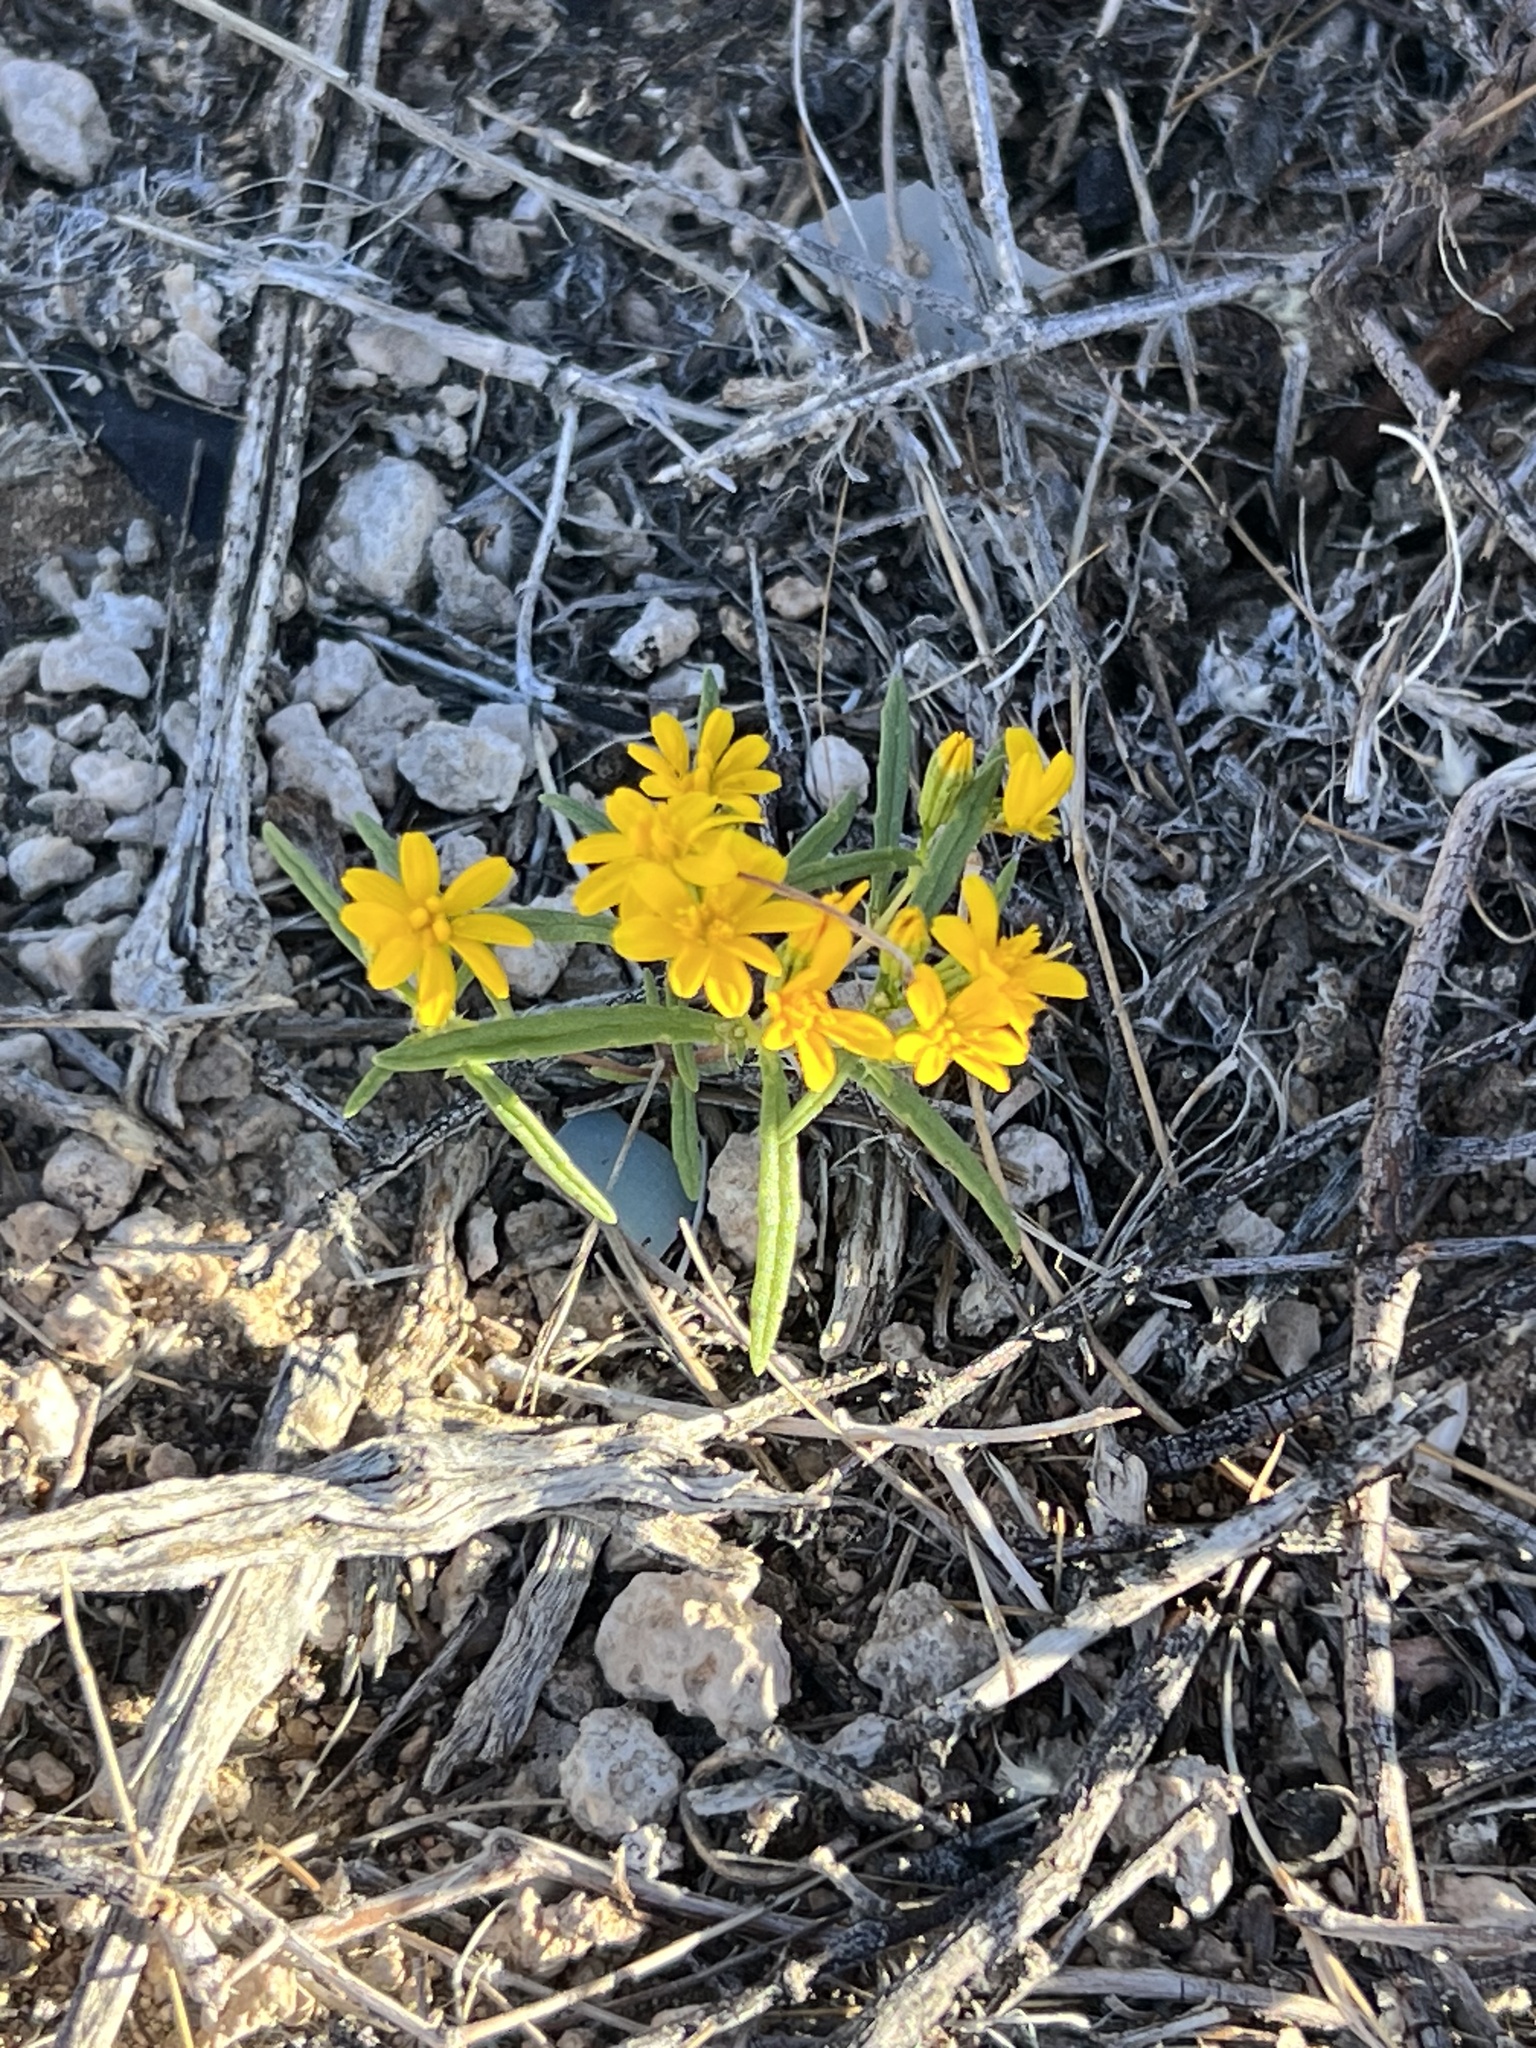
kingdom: Plantae
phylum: Tracheophyta
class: Magnoliopsida
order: Asterales
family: Asteraceae
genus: Pectis
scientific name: Pectis papposa
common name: Many-bristle chinchweed
